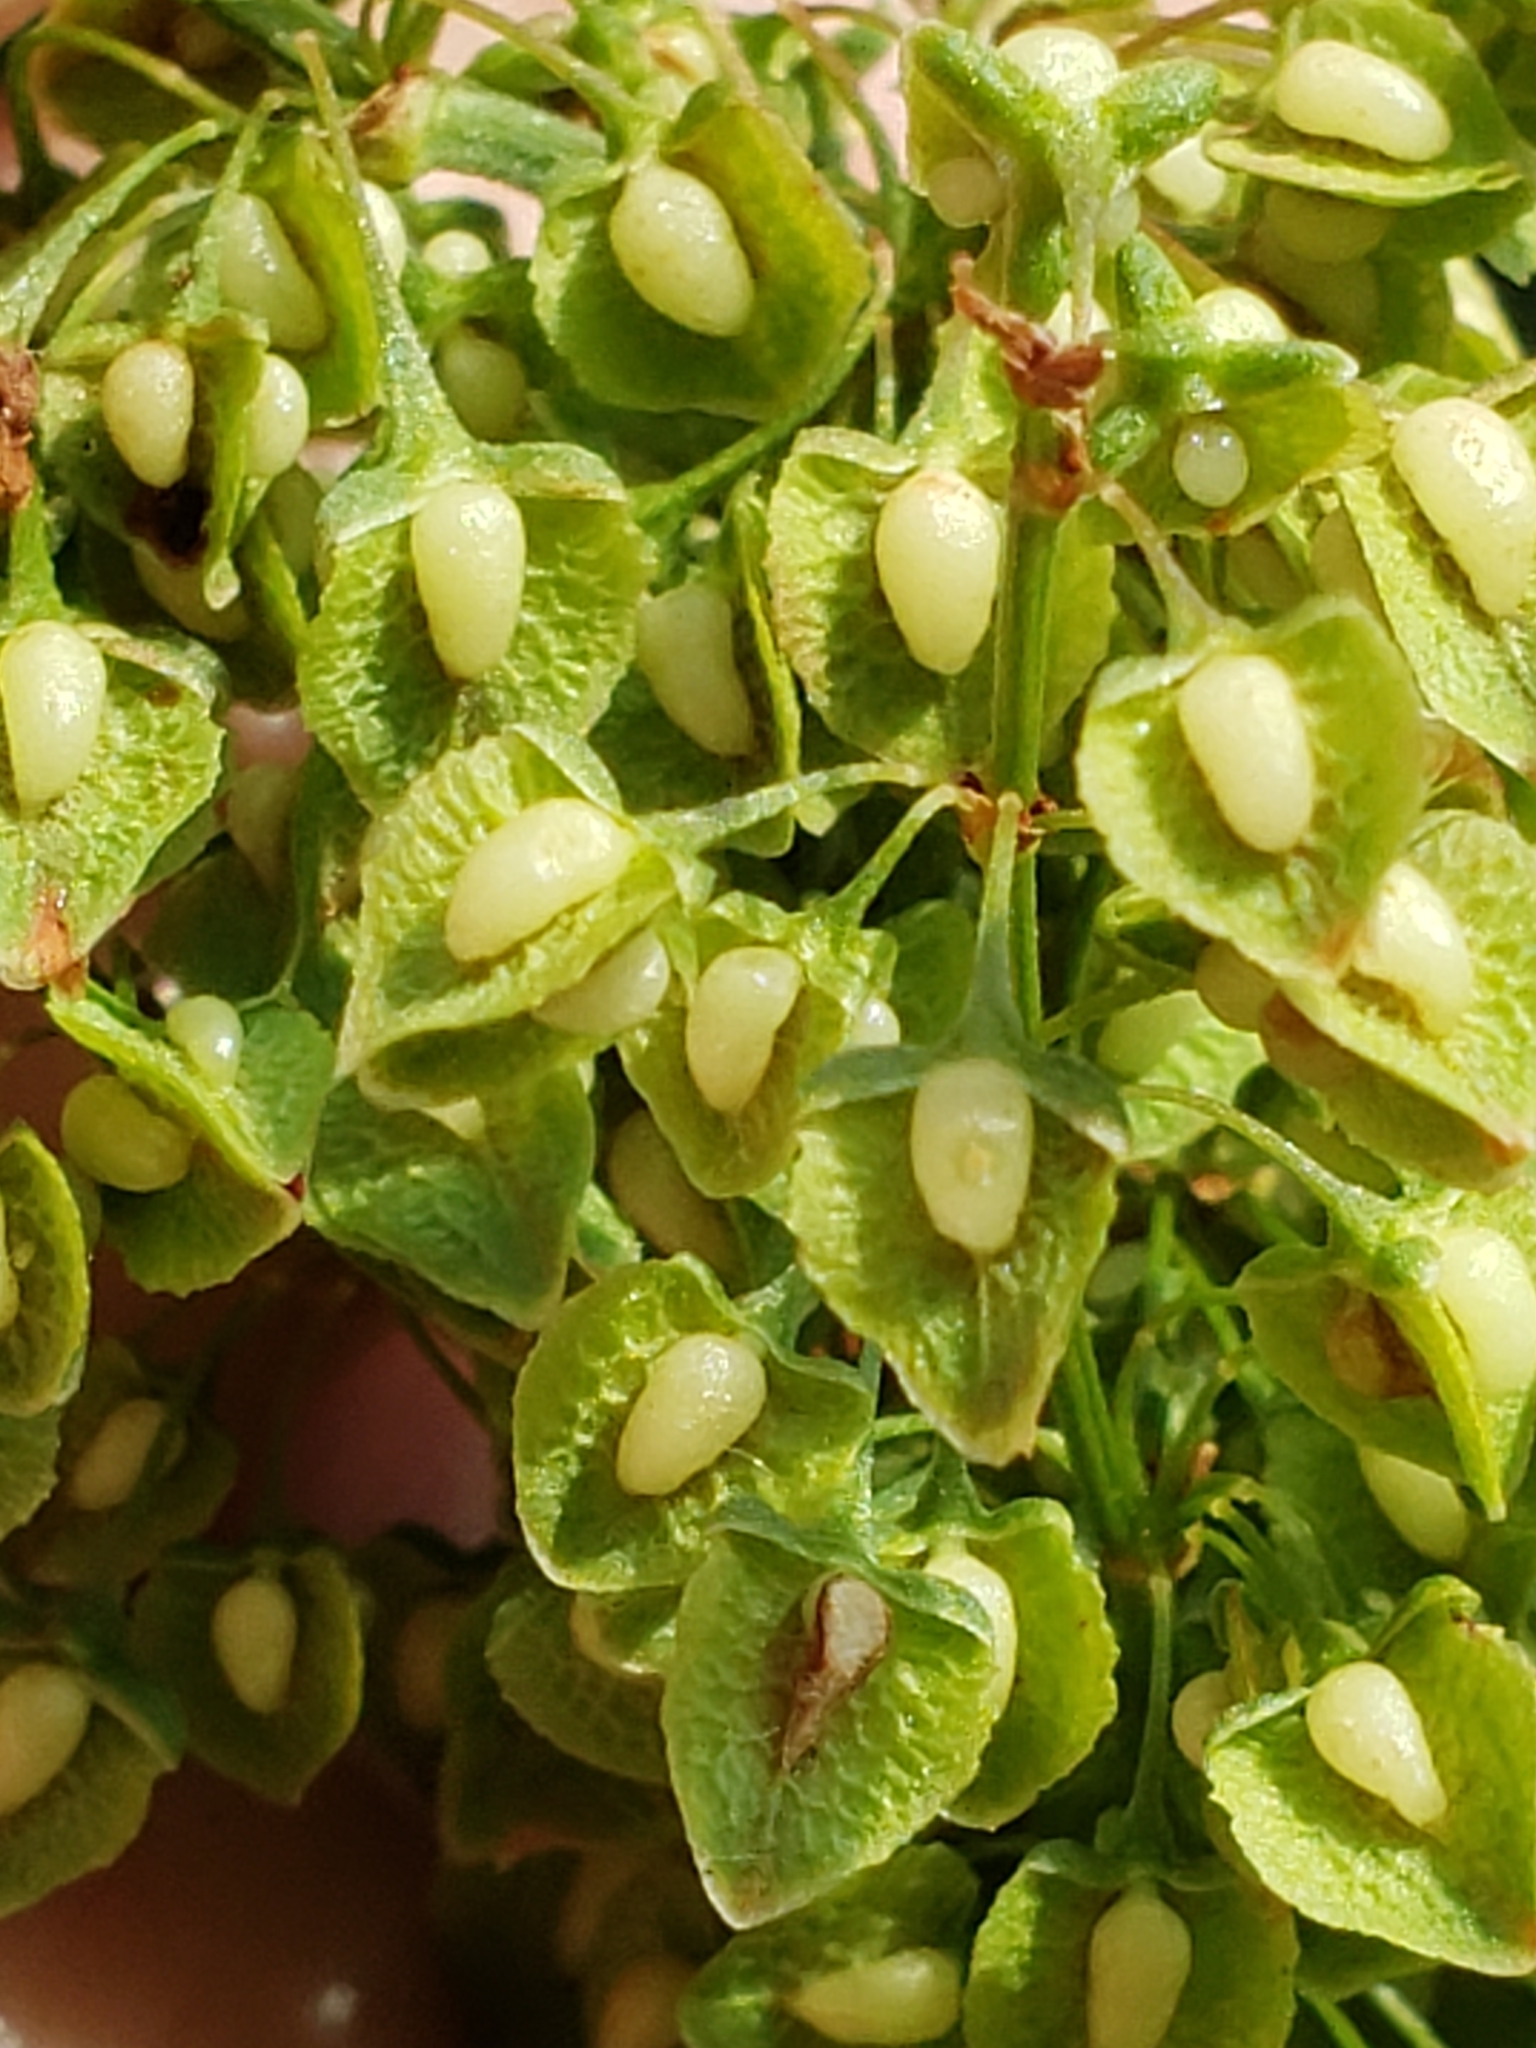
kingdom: Plantae
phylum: Tracheophyta
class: Magnoliopsida
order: Caryophyllales
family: Polygonaceae
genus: Rumex
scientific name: Rumex crispus
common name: Curled dock
